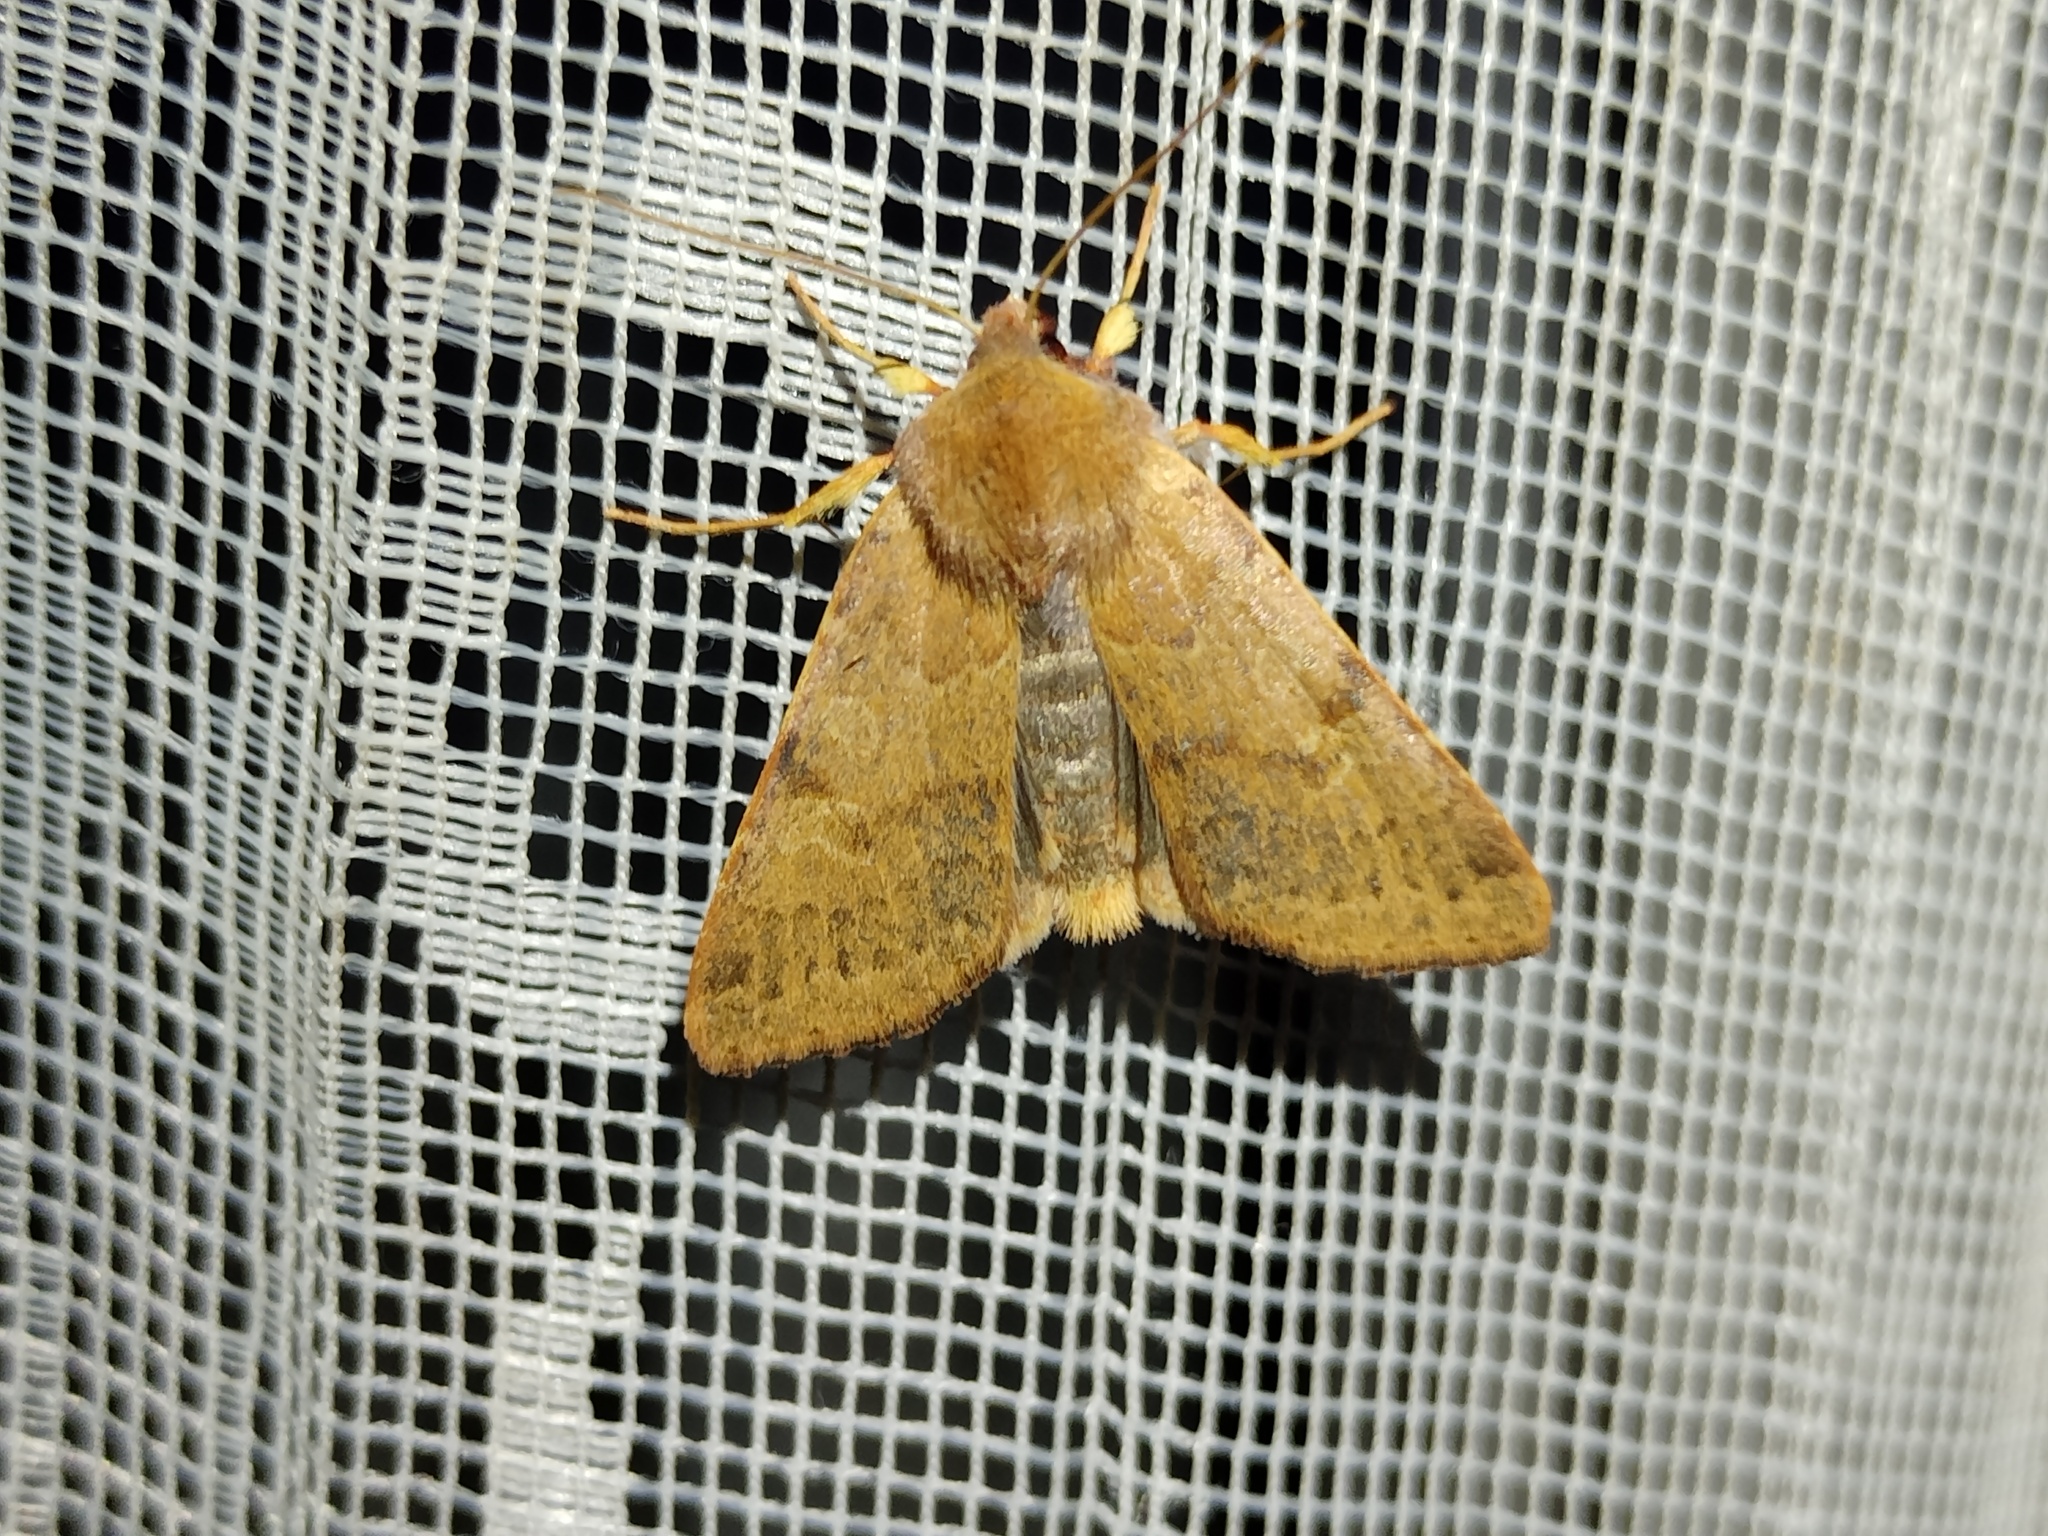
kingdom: Animalia
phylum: Arthropoda
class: Insecta
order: Lepidoptera
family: Noctuidae
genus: Agrochola
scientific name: Agrochola helvola
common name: Flounced chestnut
